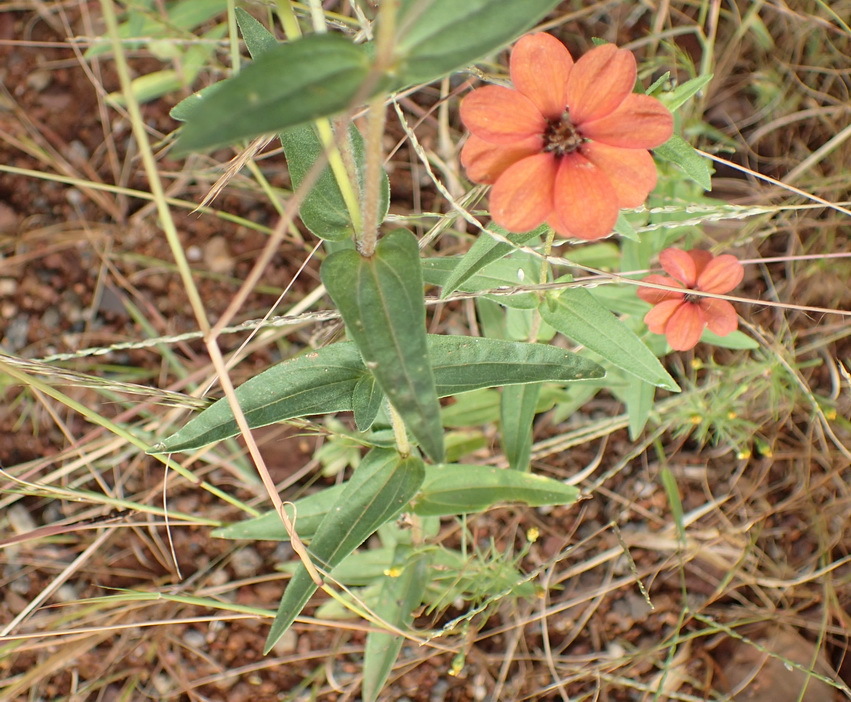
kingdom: Plantae
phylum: Tracheophyta
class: Magnoliopsida
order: Asterales
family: Asteraceae
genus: Zinnia
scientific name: Zinnia peruviana
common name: Peruvian zinnia
